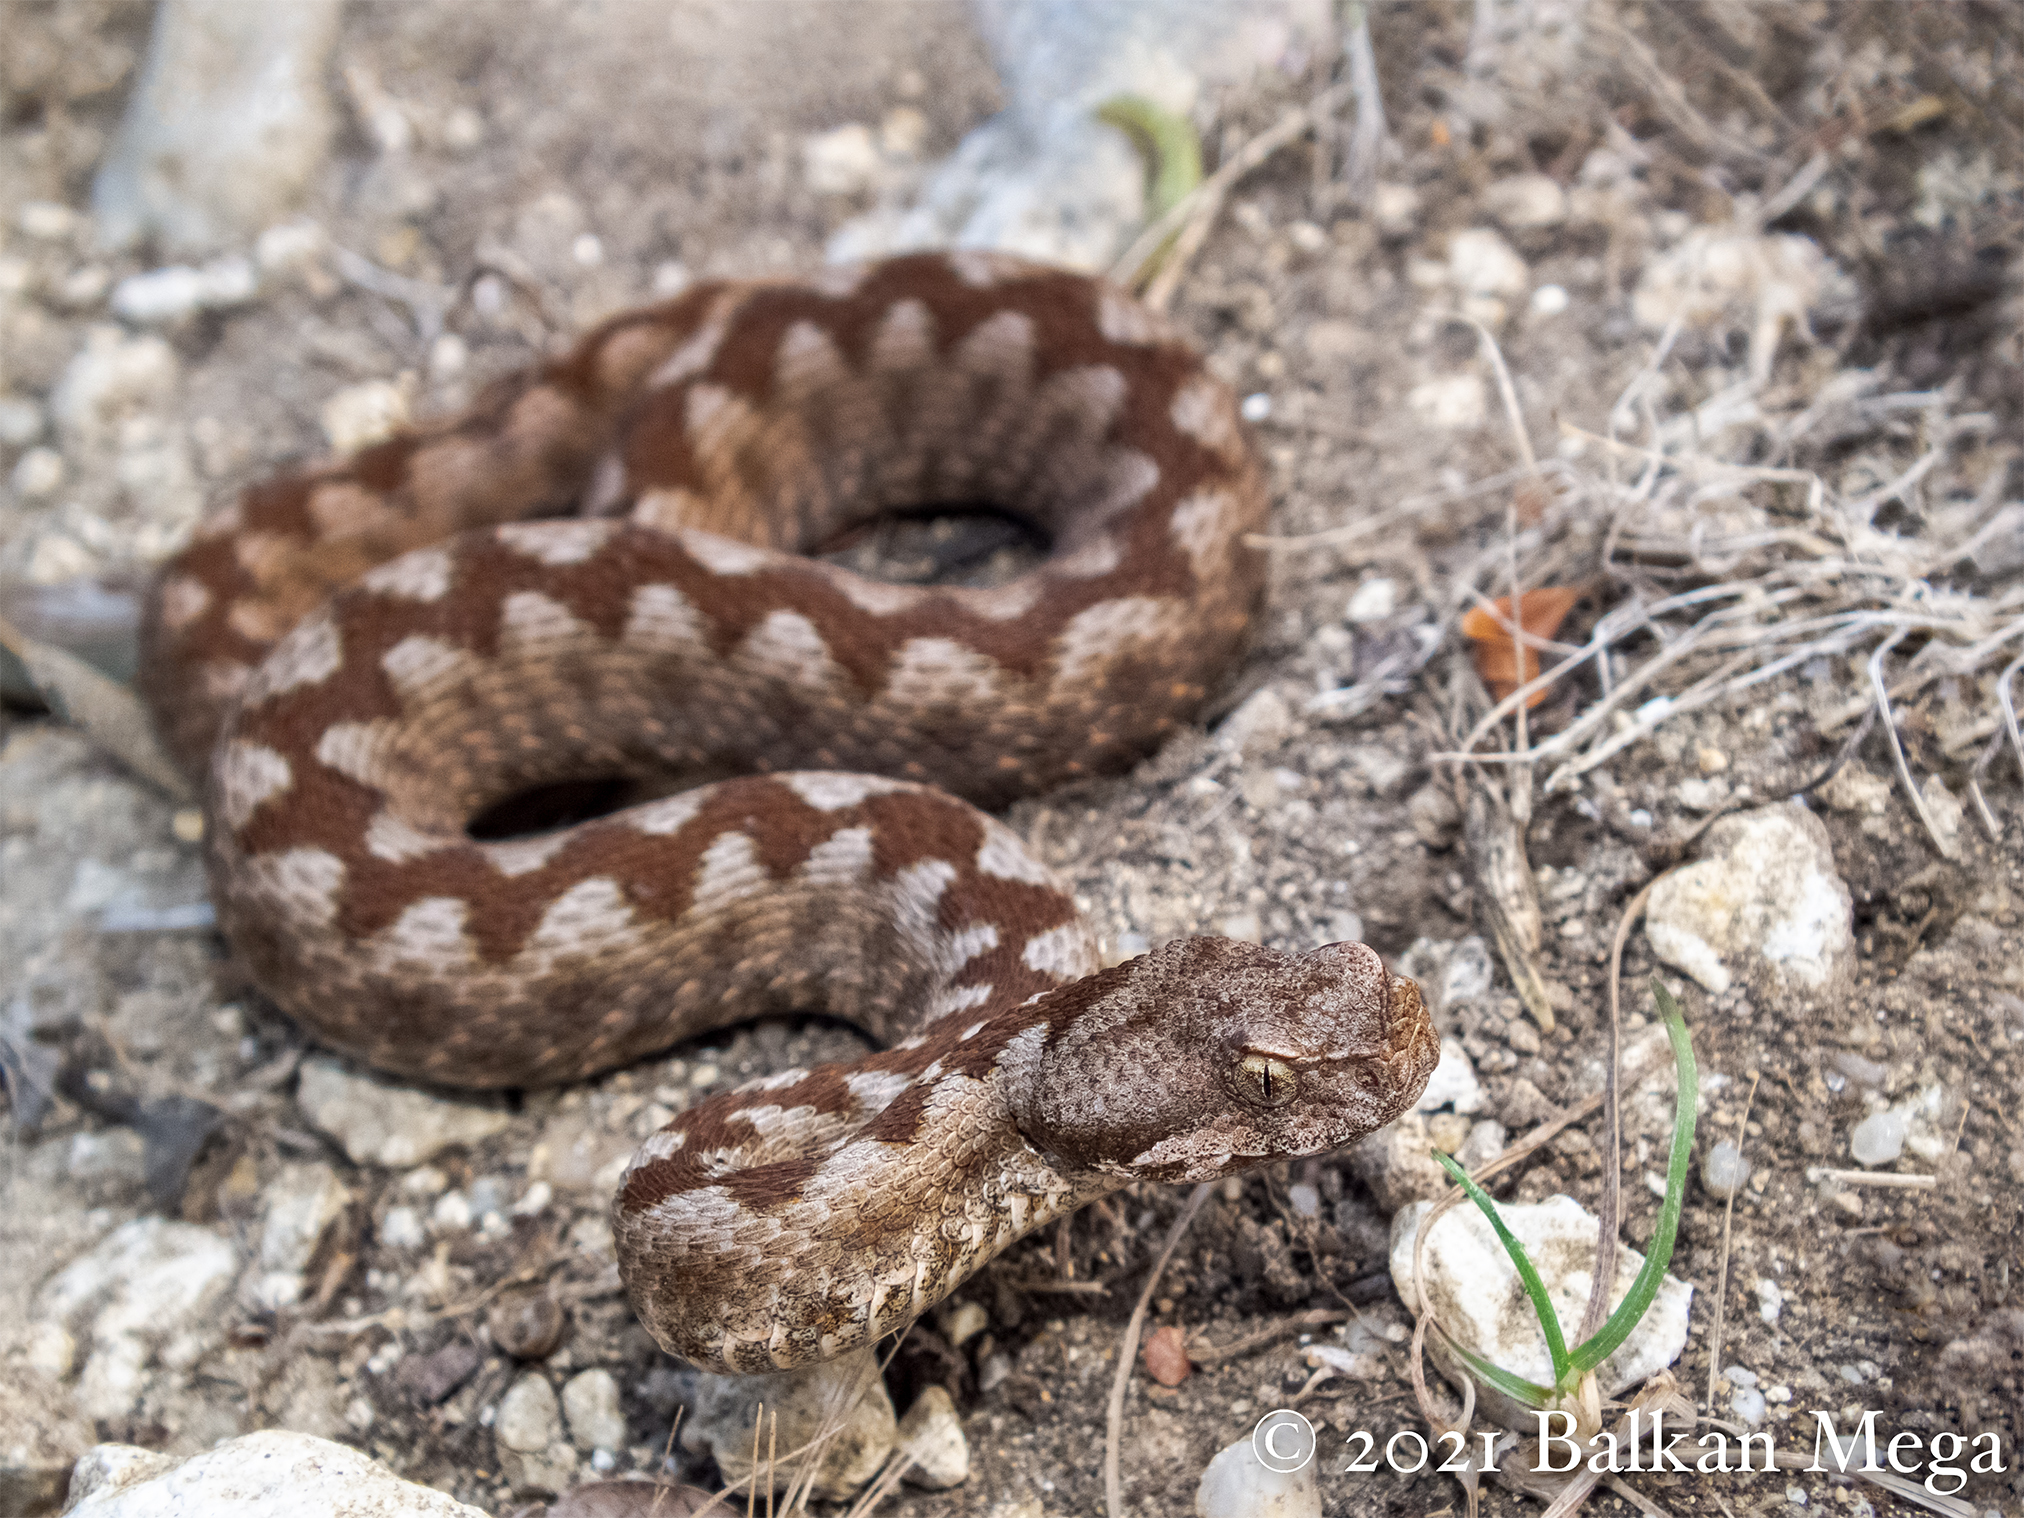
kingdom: Animalia
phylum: Chordata
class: Squamata
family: Viperidae
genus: Vipera
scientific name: Vipera ammodytes
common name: Sand viper
